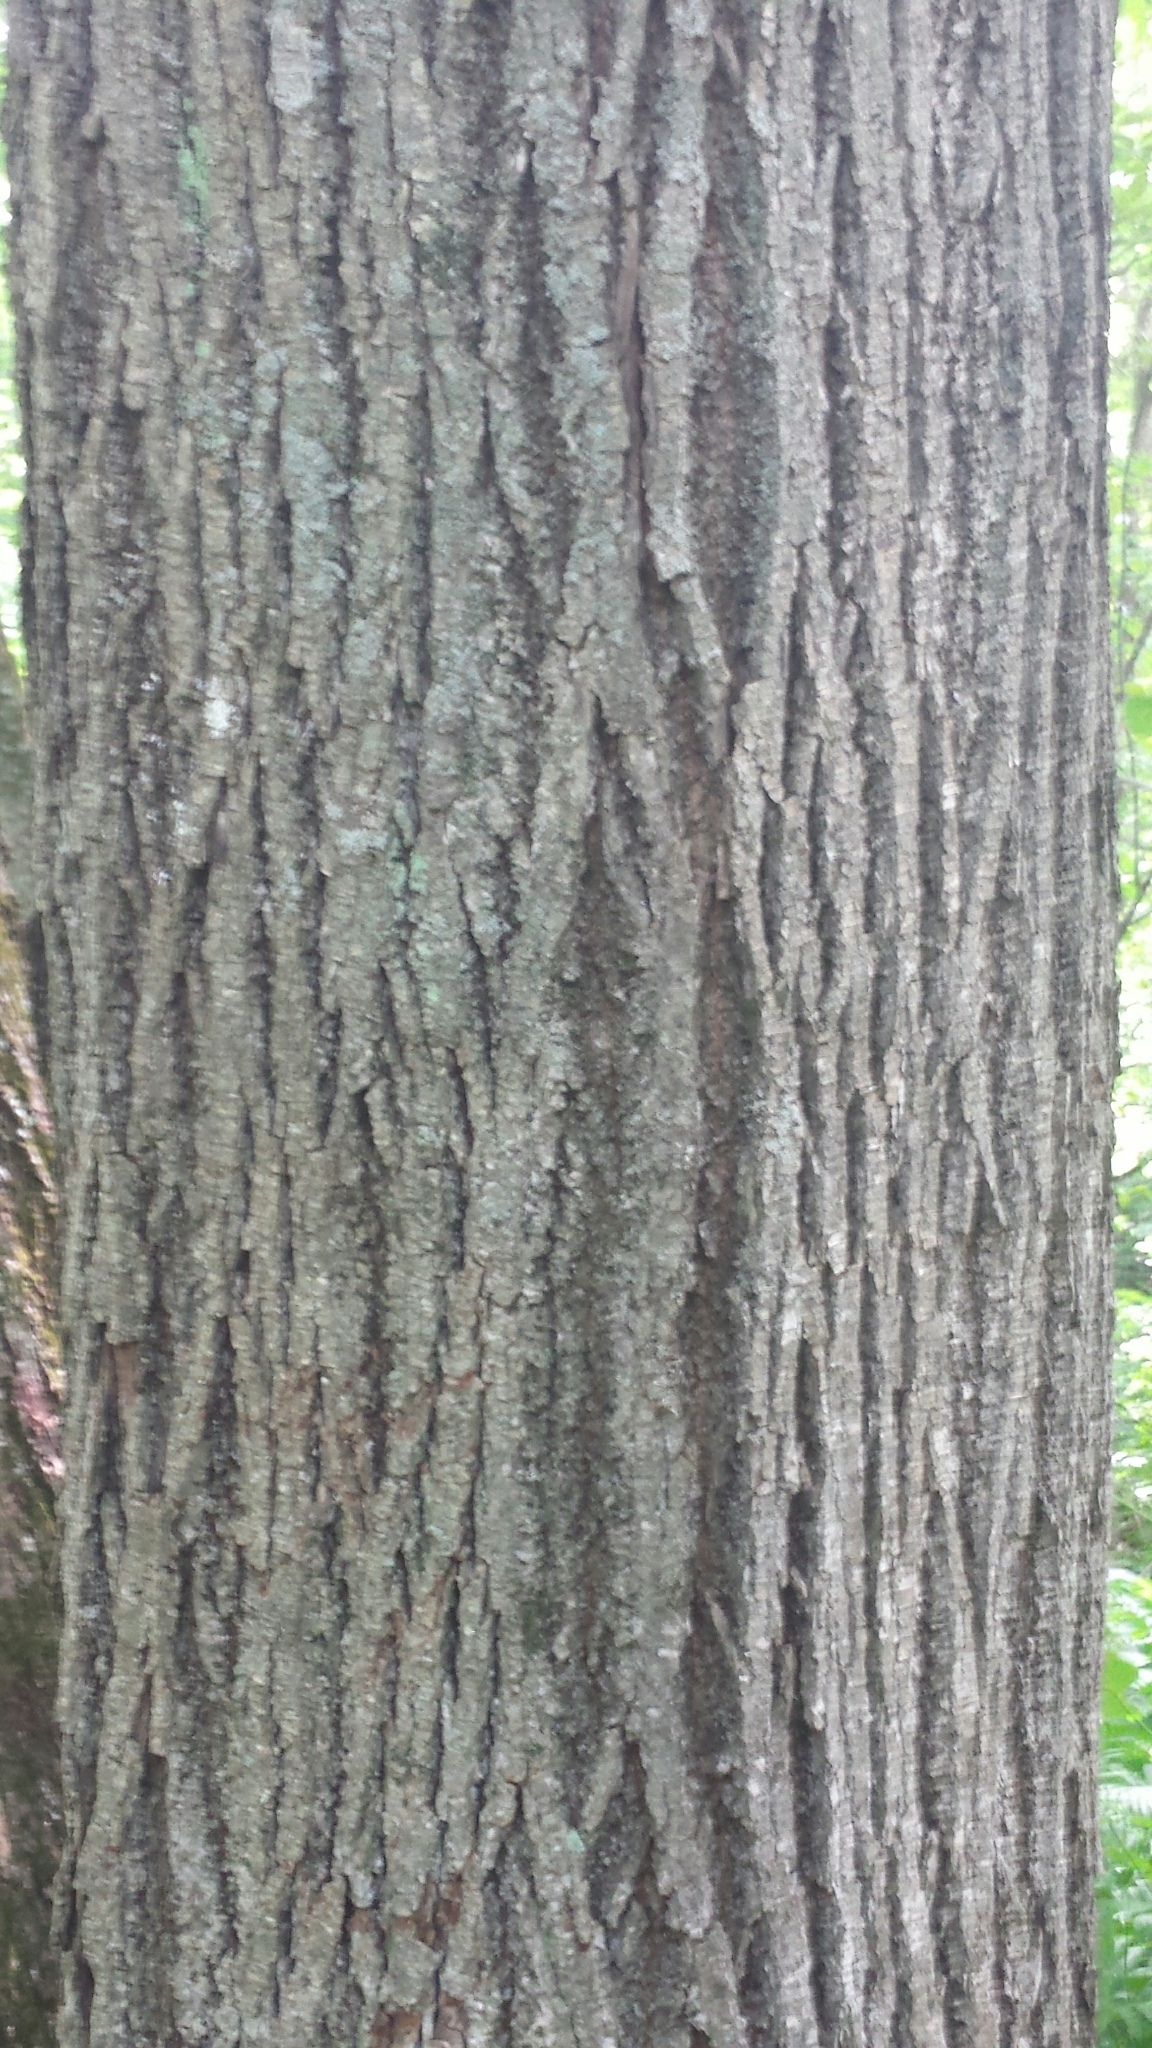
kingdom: Plantae
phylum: Tracheophyta
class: Magnoliopsida
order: Malvales
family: Malvaceae
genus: Tilia
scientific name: Tilia americana
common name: Basswood
